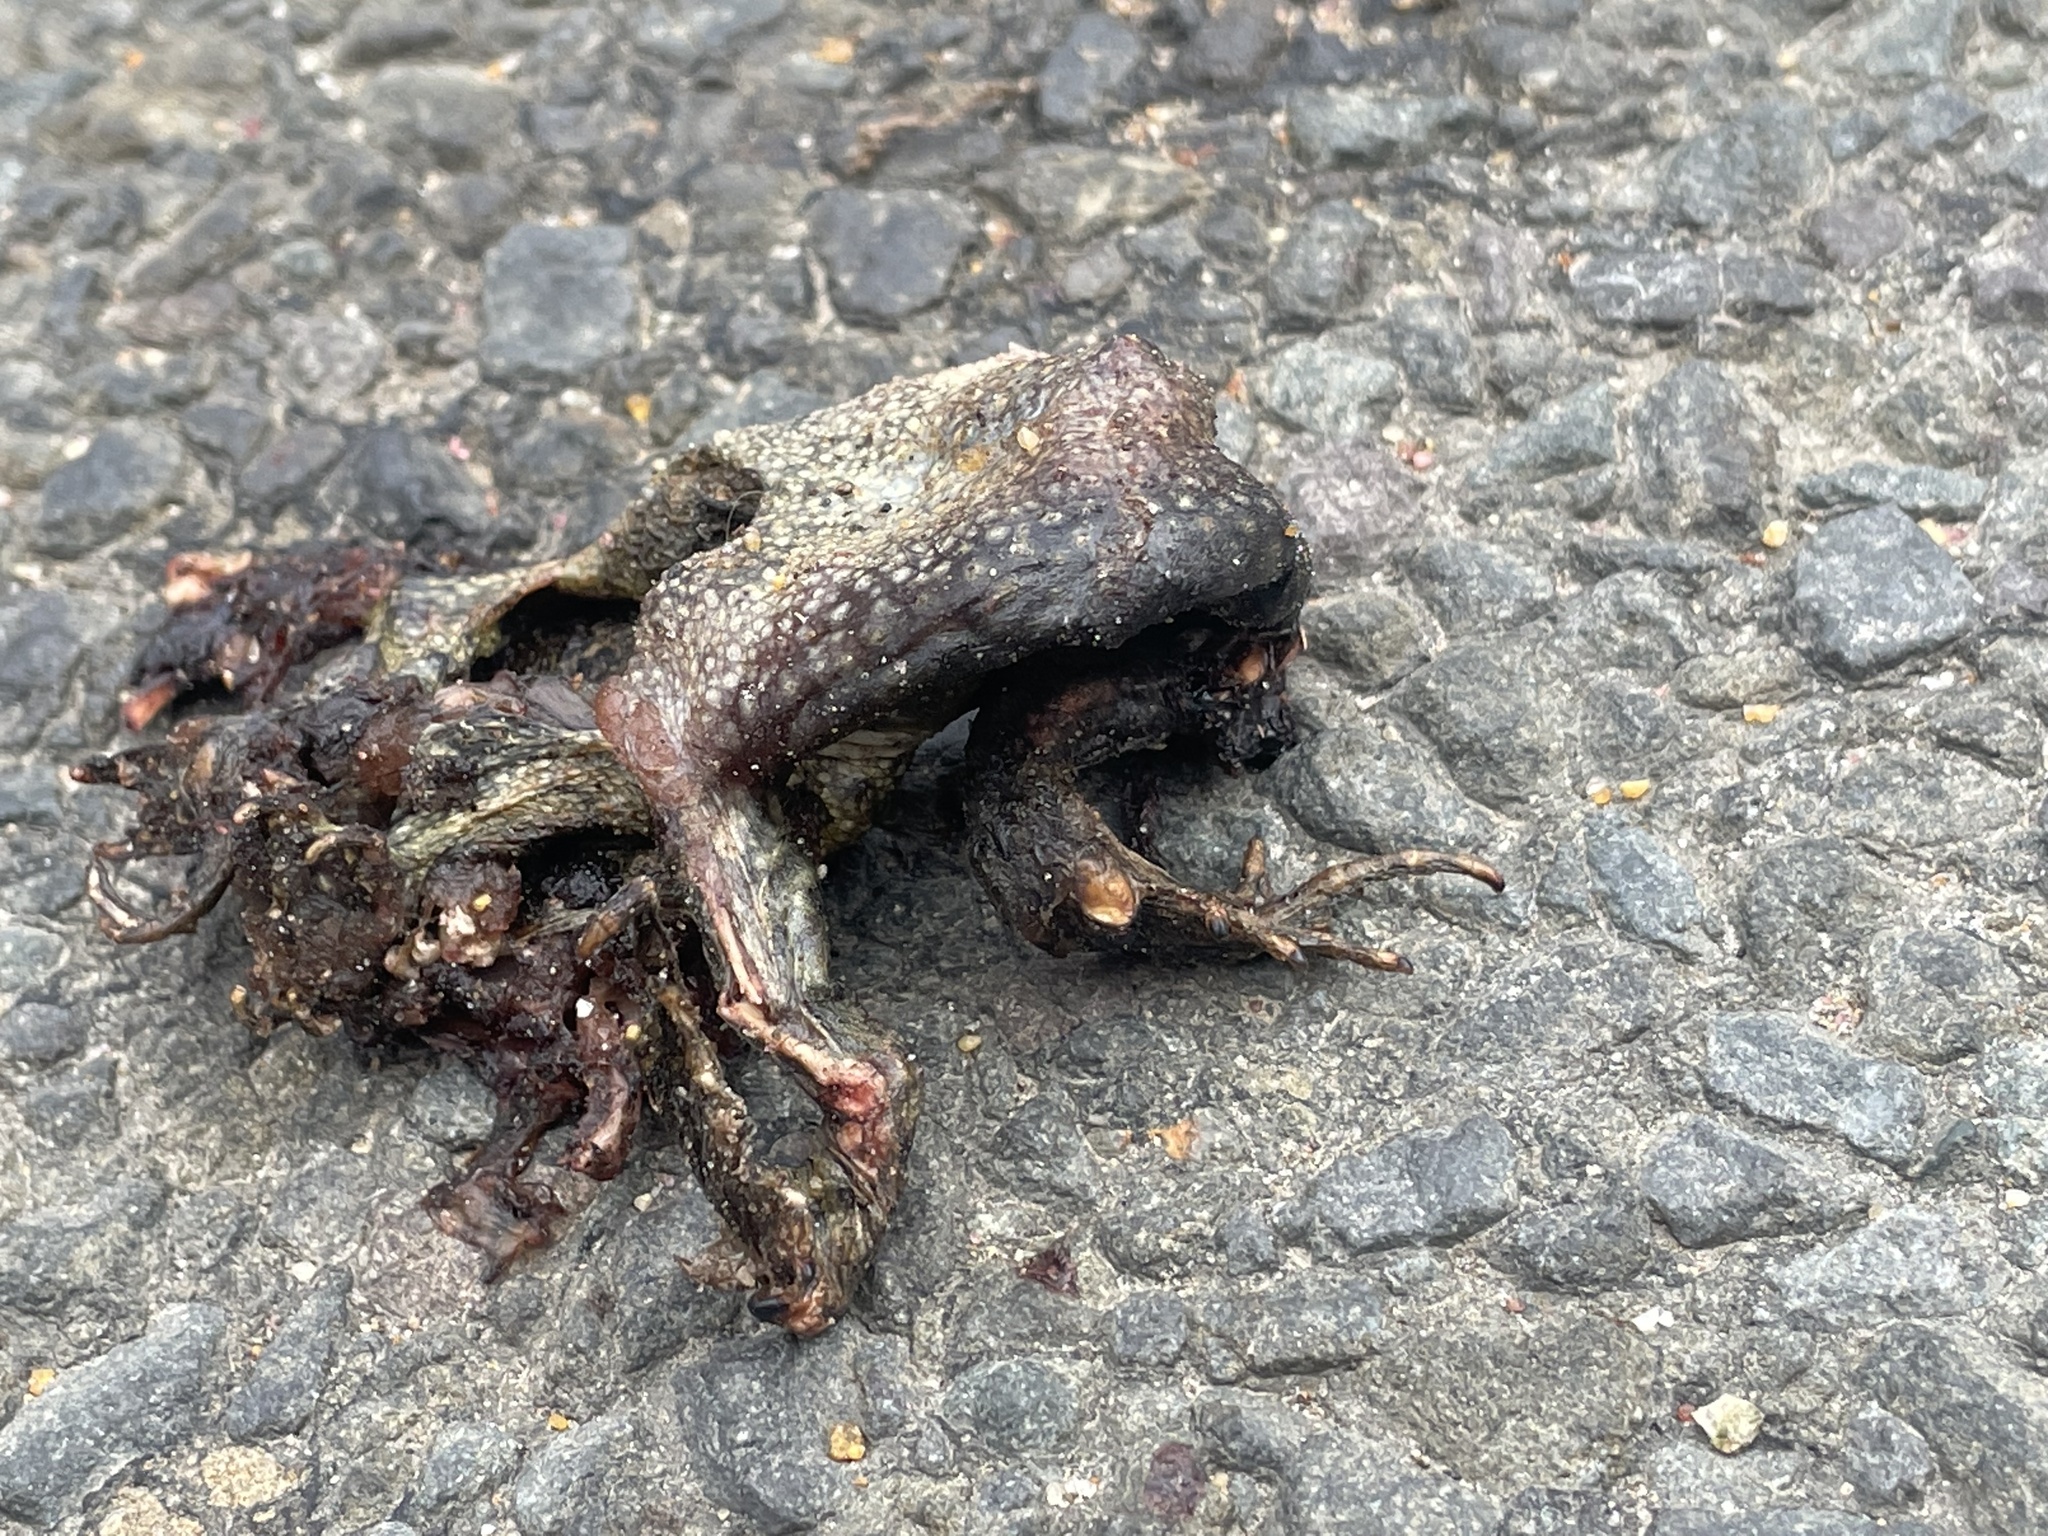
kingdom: Animalia
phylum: Chordata
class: Amphibia
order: Anura
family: Bufonidae
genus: Anaxyrus
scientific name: Anaxyrus americanus
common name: American toad
